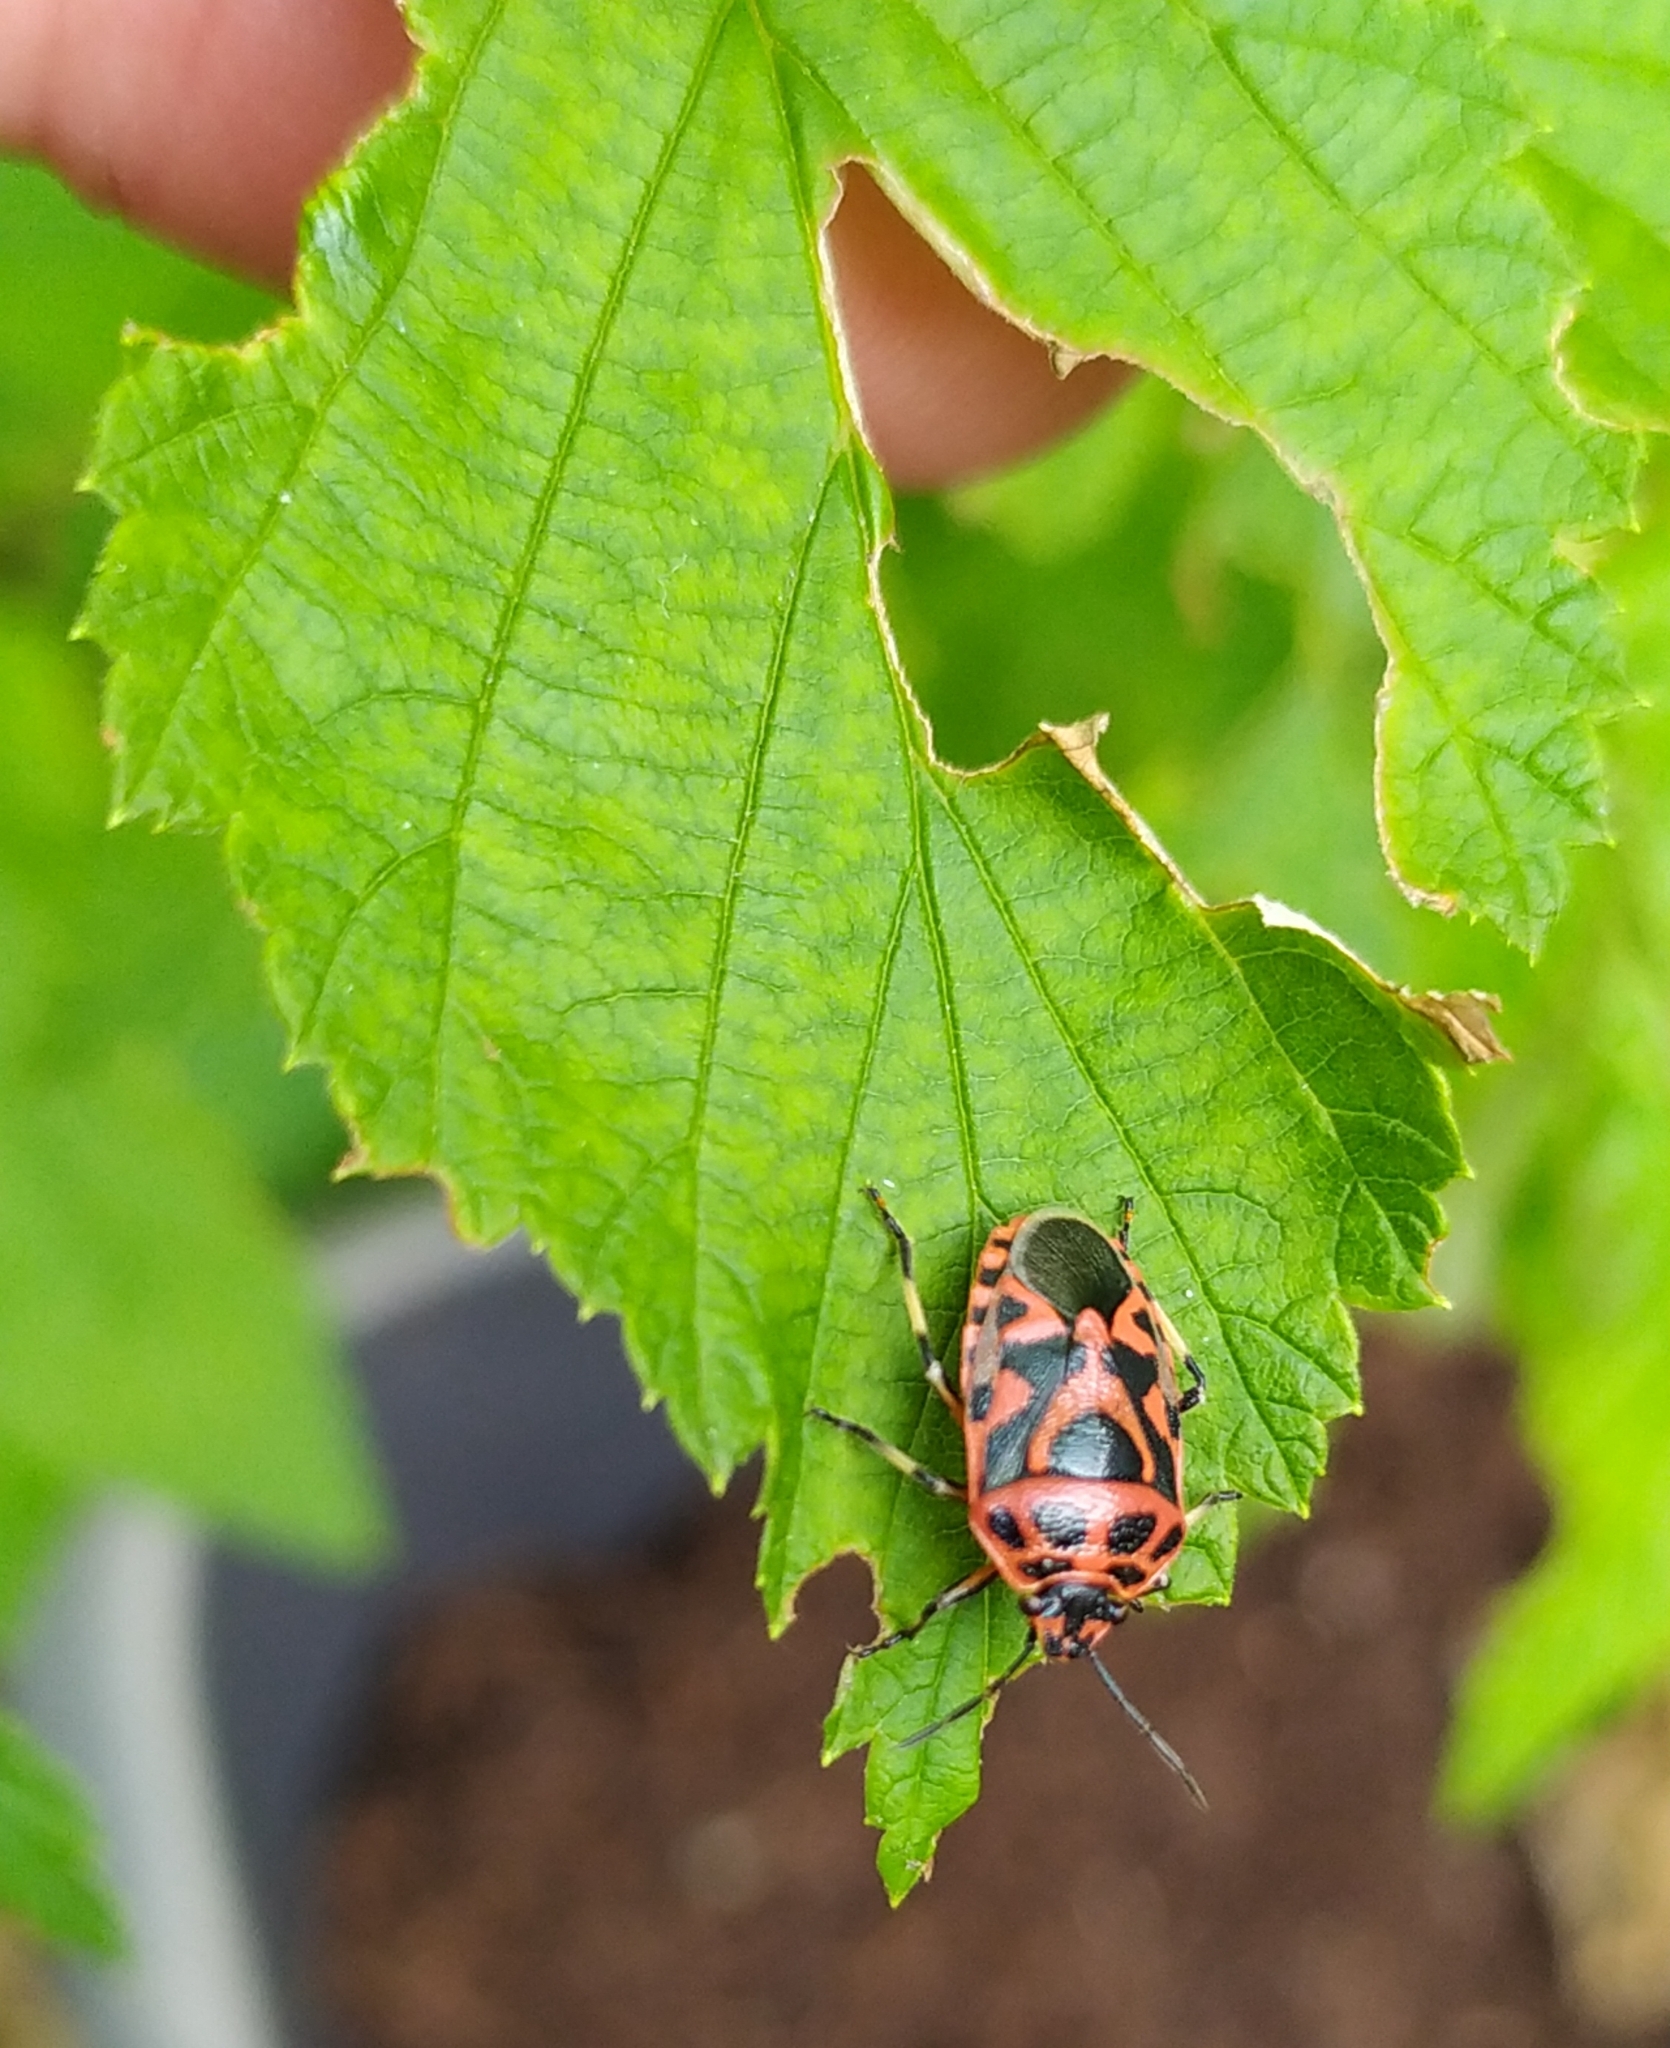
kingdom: Animalia
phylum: Arthropoda
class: Insecta
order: Hemiptera
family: Pentatomidae
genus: Eurydema
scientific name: Eurydema ornata
